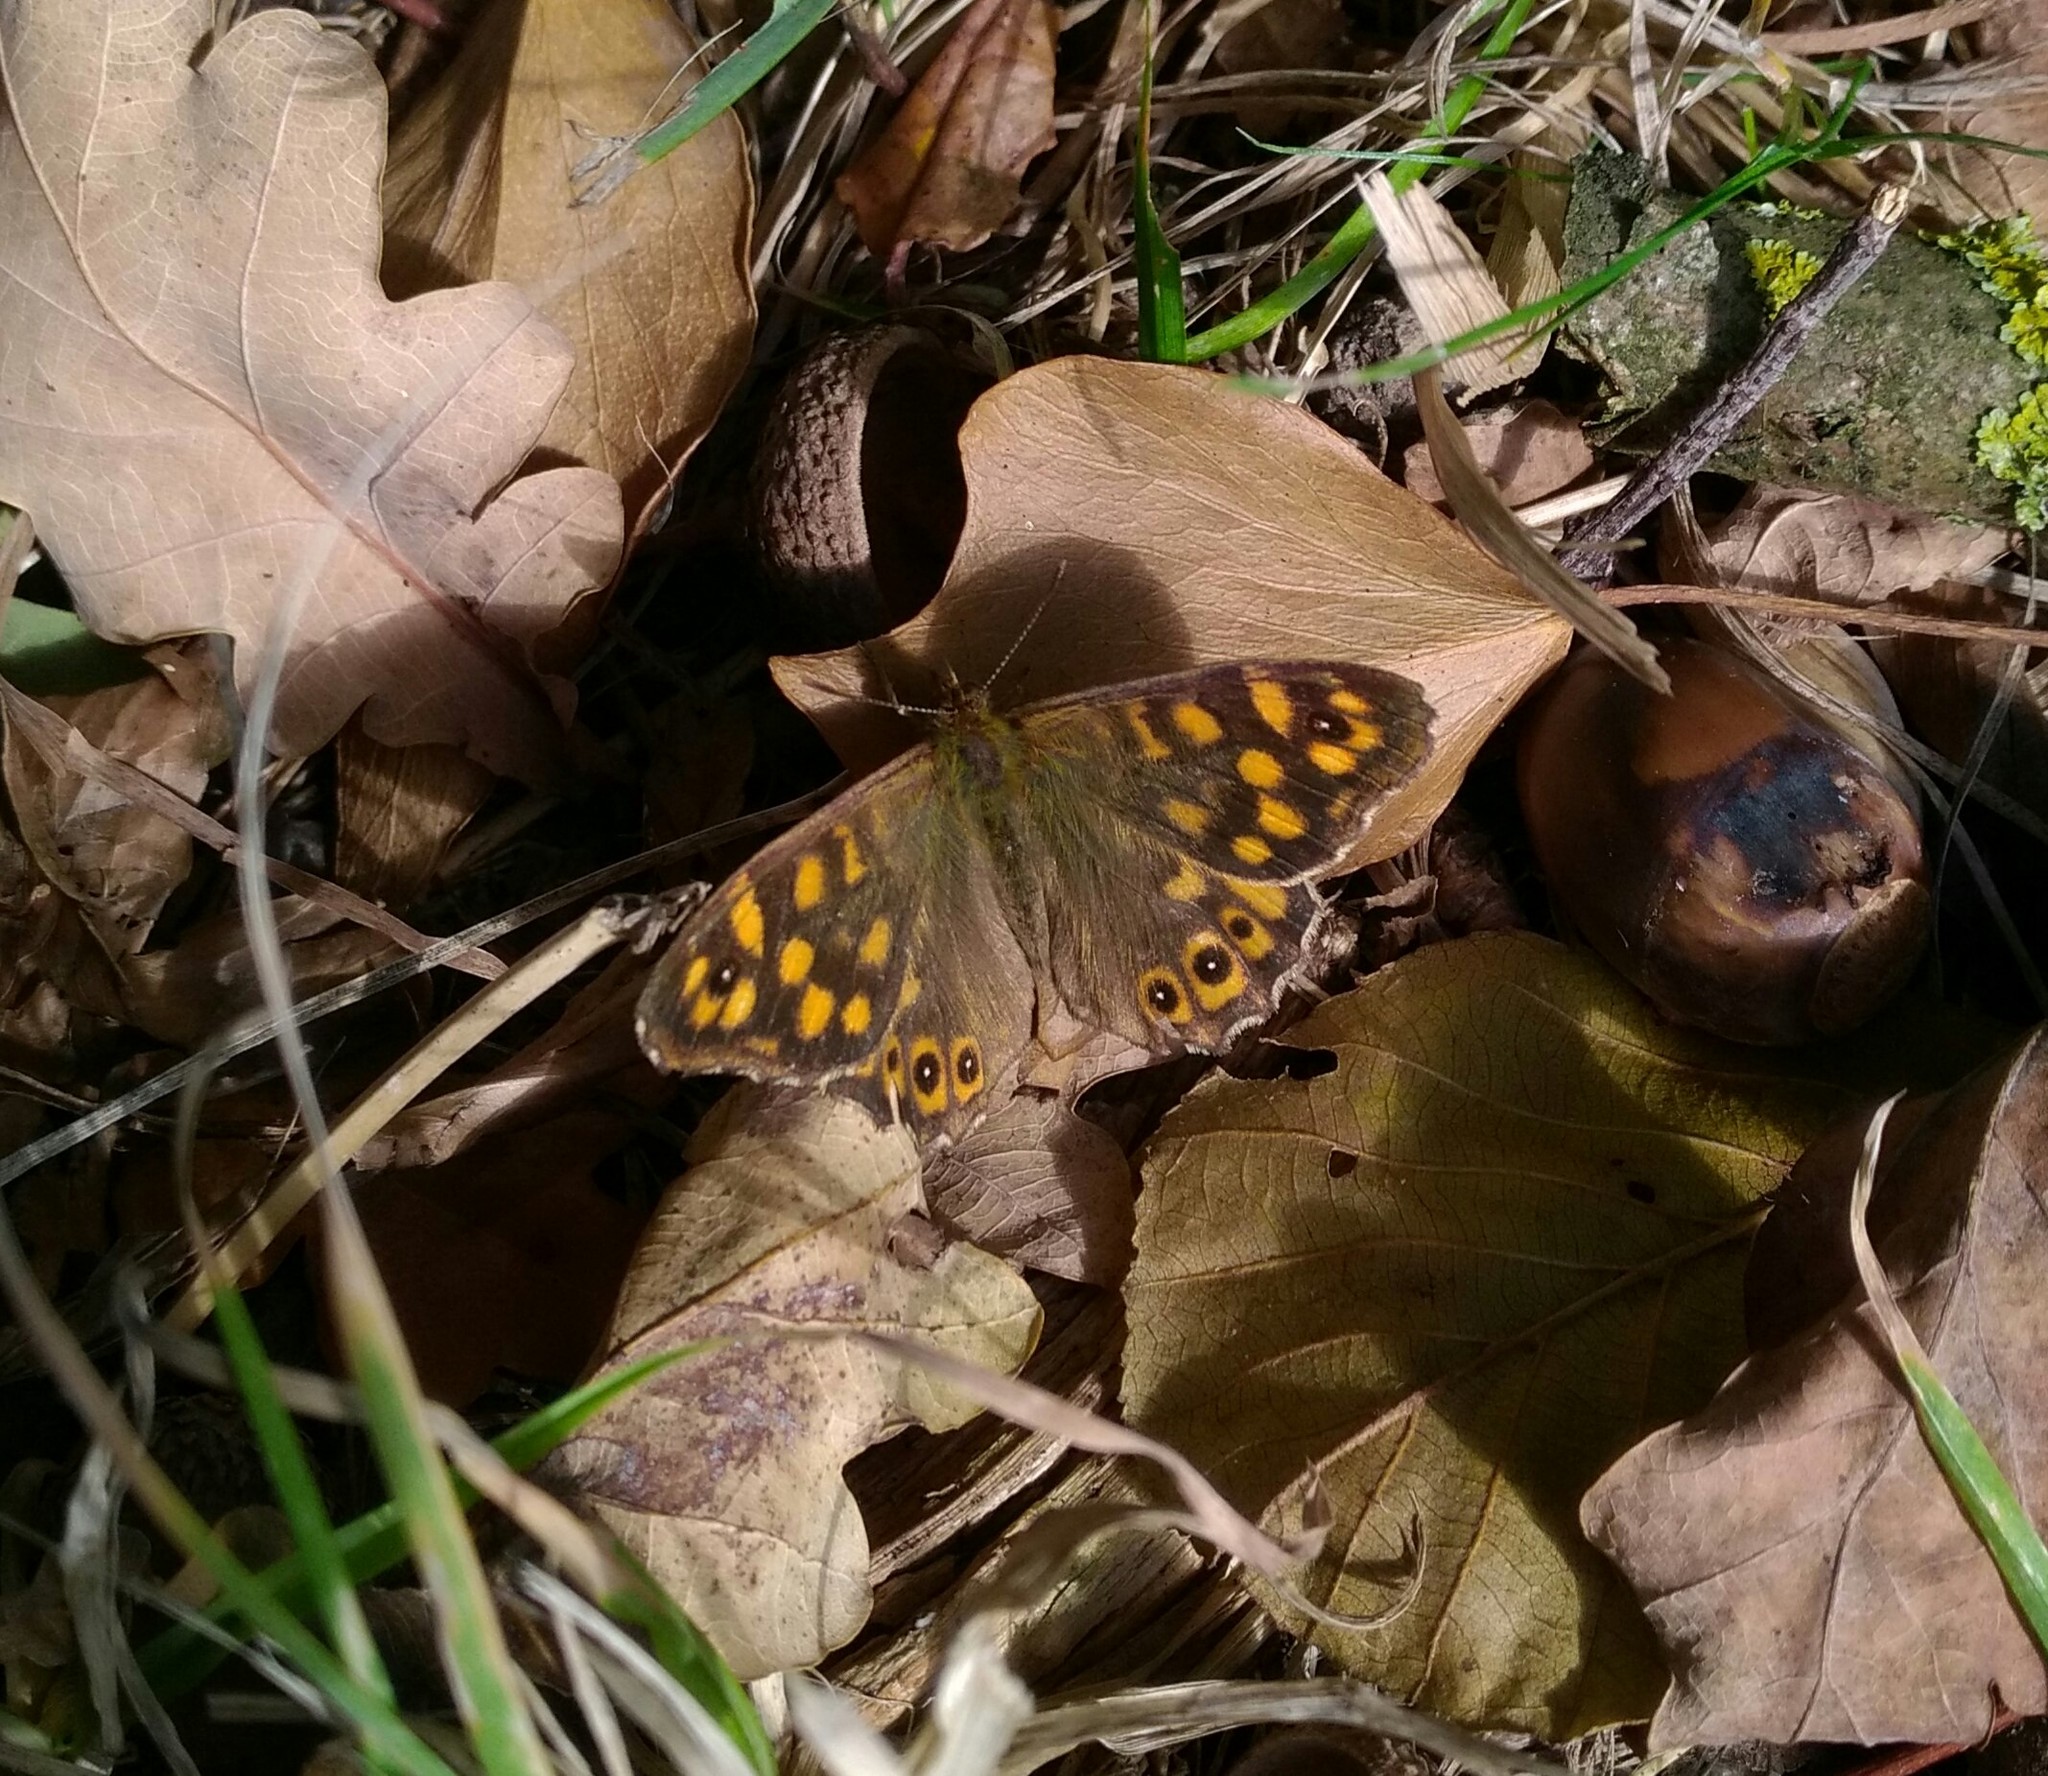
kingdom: Animalia
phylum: Arthropoda
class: Insecta
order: Lepidoptera
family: Nymphalidae
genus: Pararge
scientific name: Pararge aegeria
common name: Speckled wood
